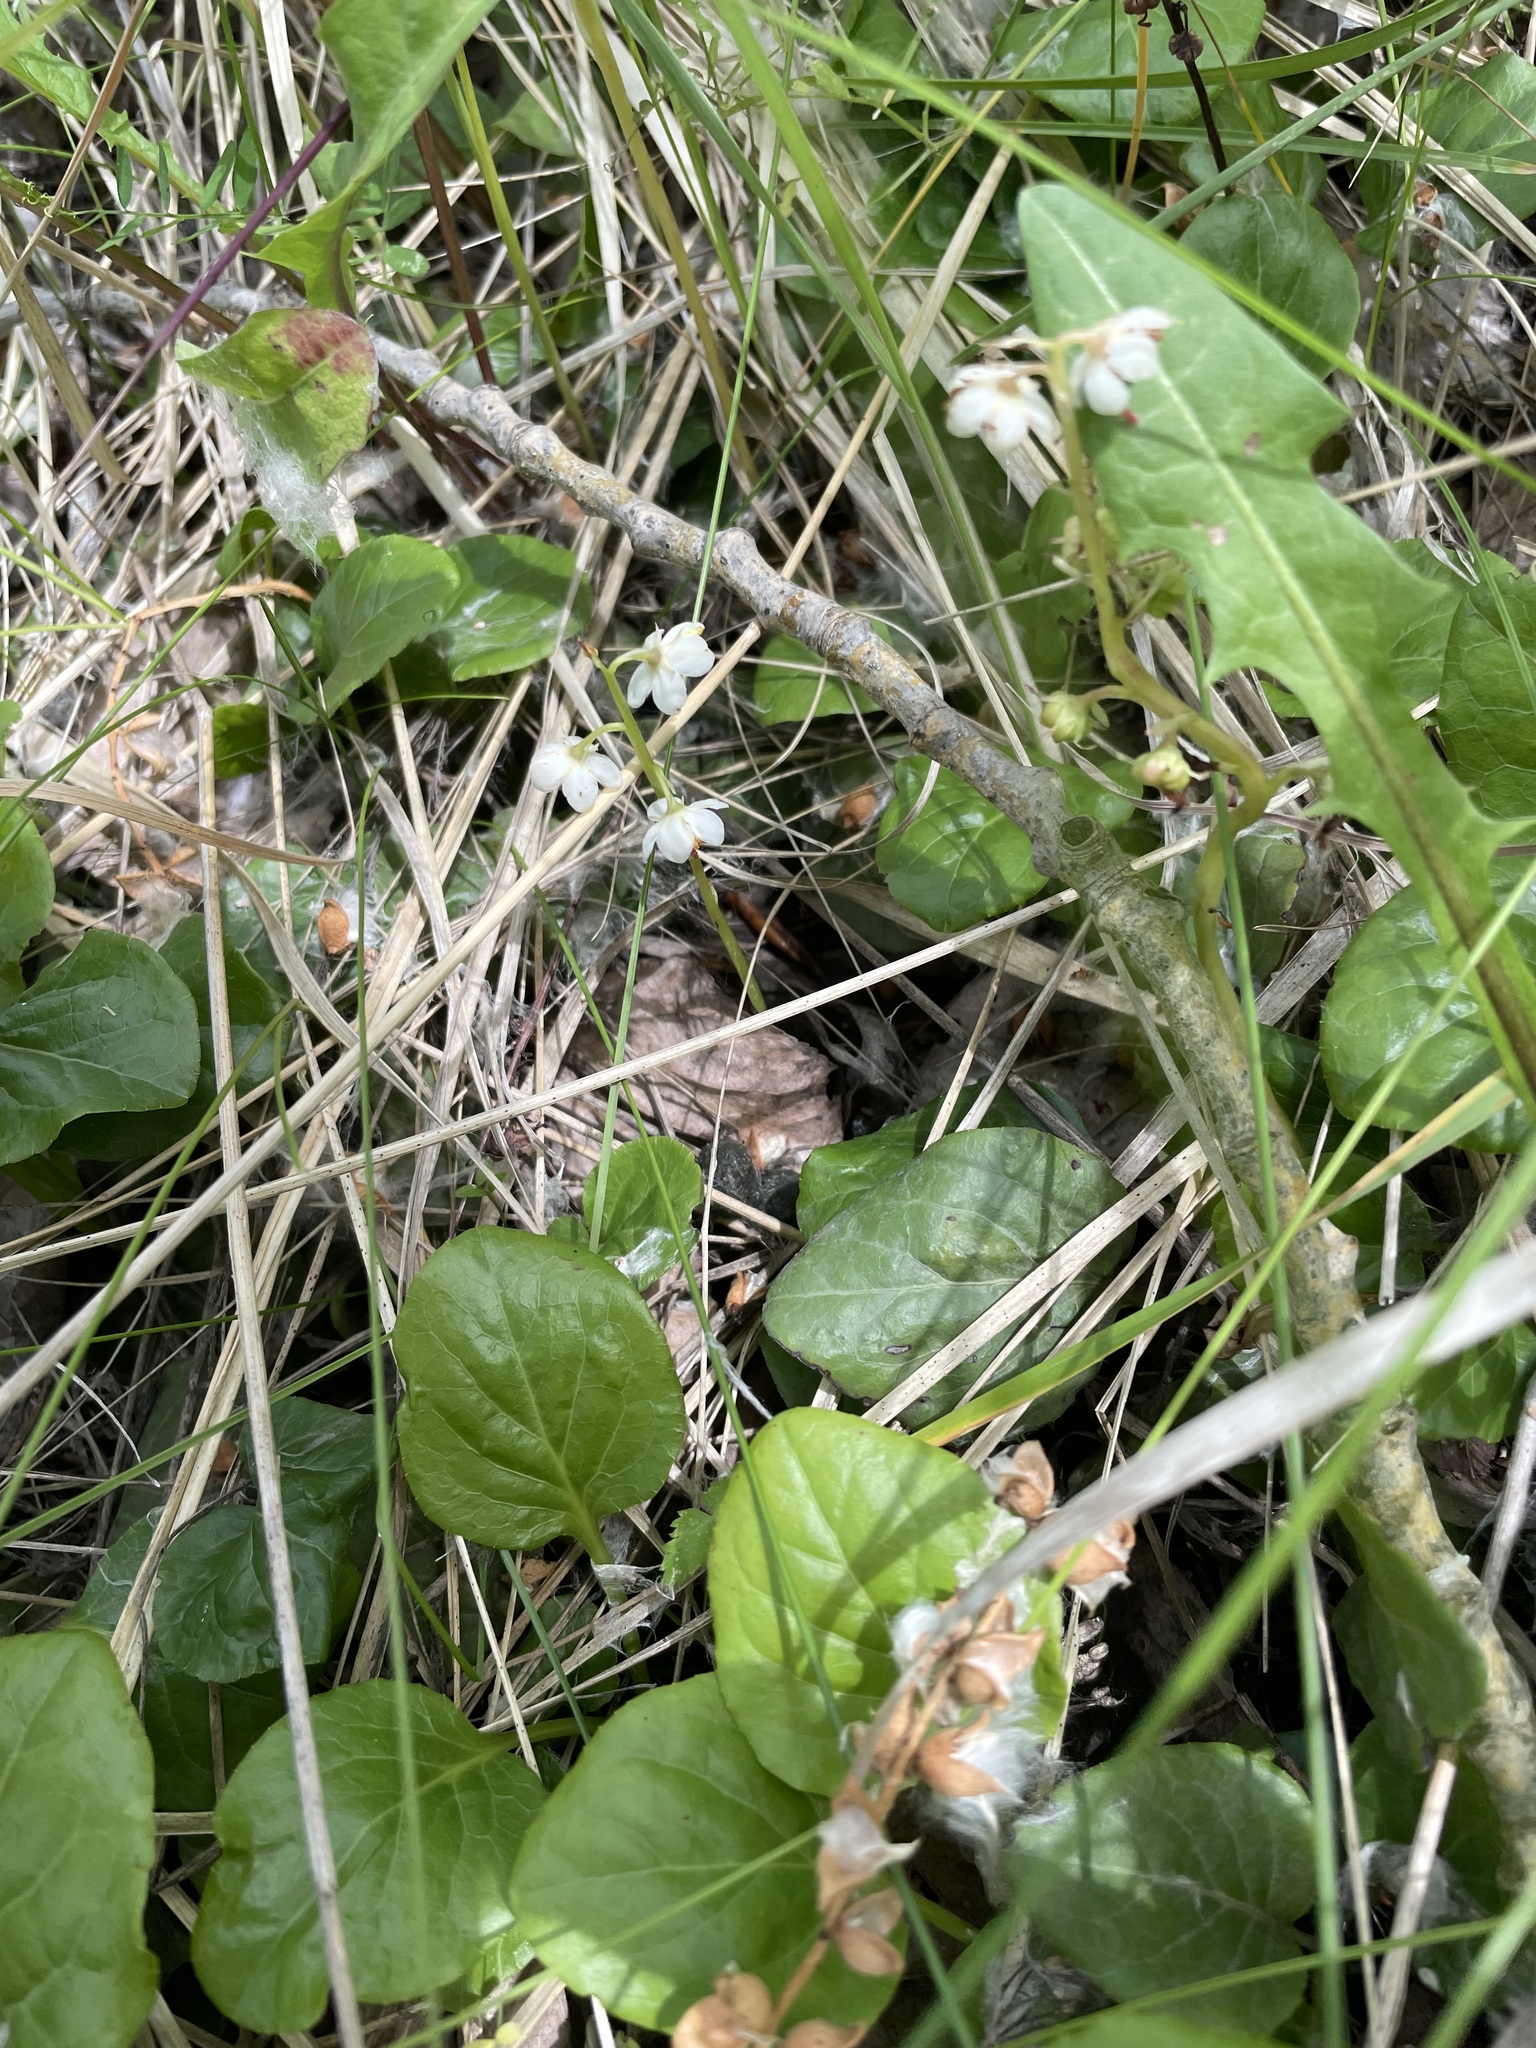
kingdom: Plantae
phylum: Tracheophyta
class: Magnoliopsida
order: Ericales
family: Ericaceae
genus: Pyrola
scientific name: Pyrola rotundifolia
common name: Round-leaved wintergreen
